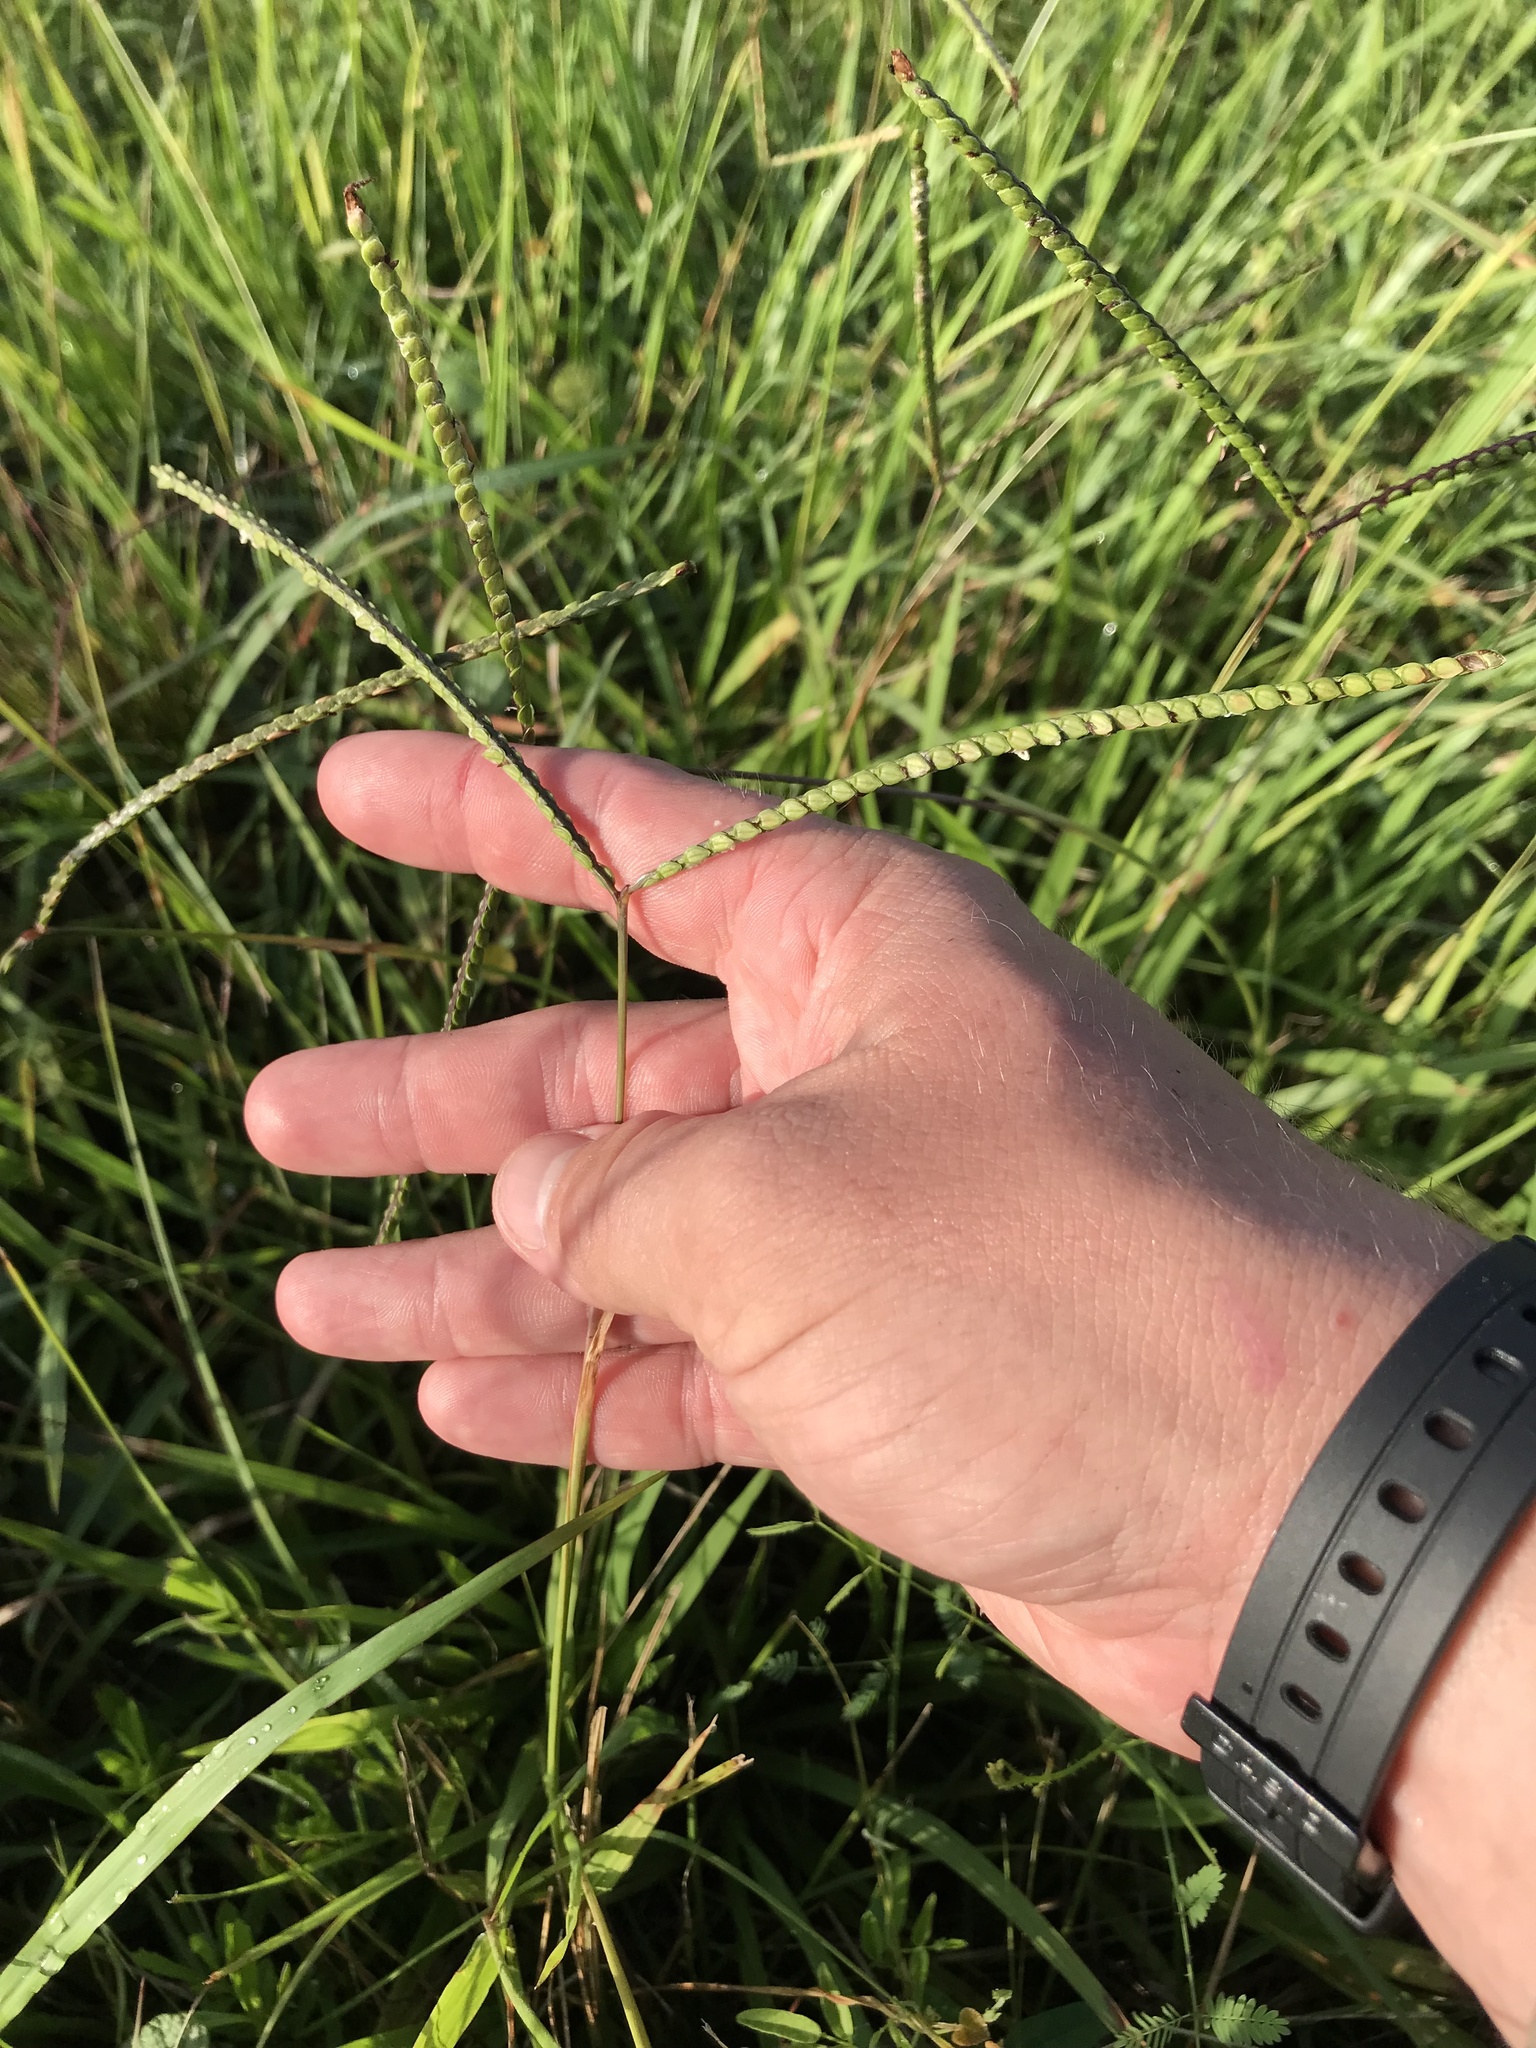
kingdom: Plantae
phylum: Tracheophyta
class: Liliopsida
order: Poales
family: Poaceae
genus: Paspalum
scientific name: Paspalum notatum
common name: Bahiagrass
